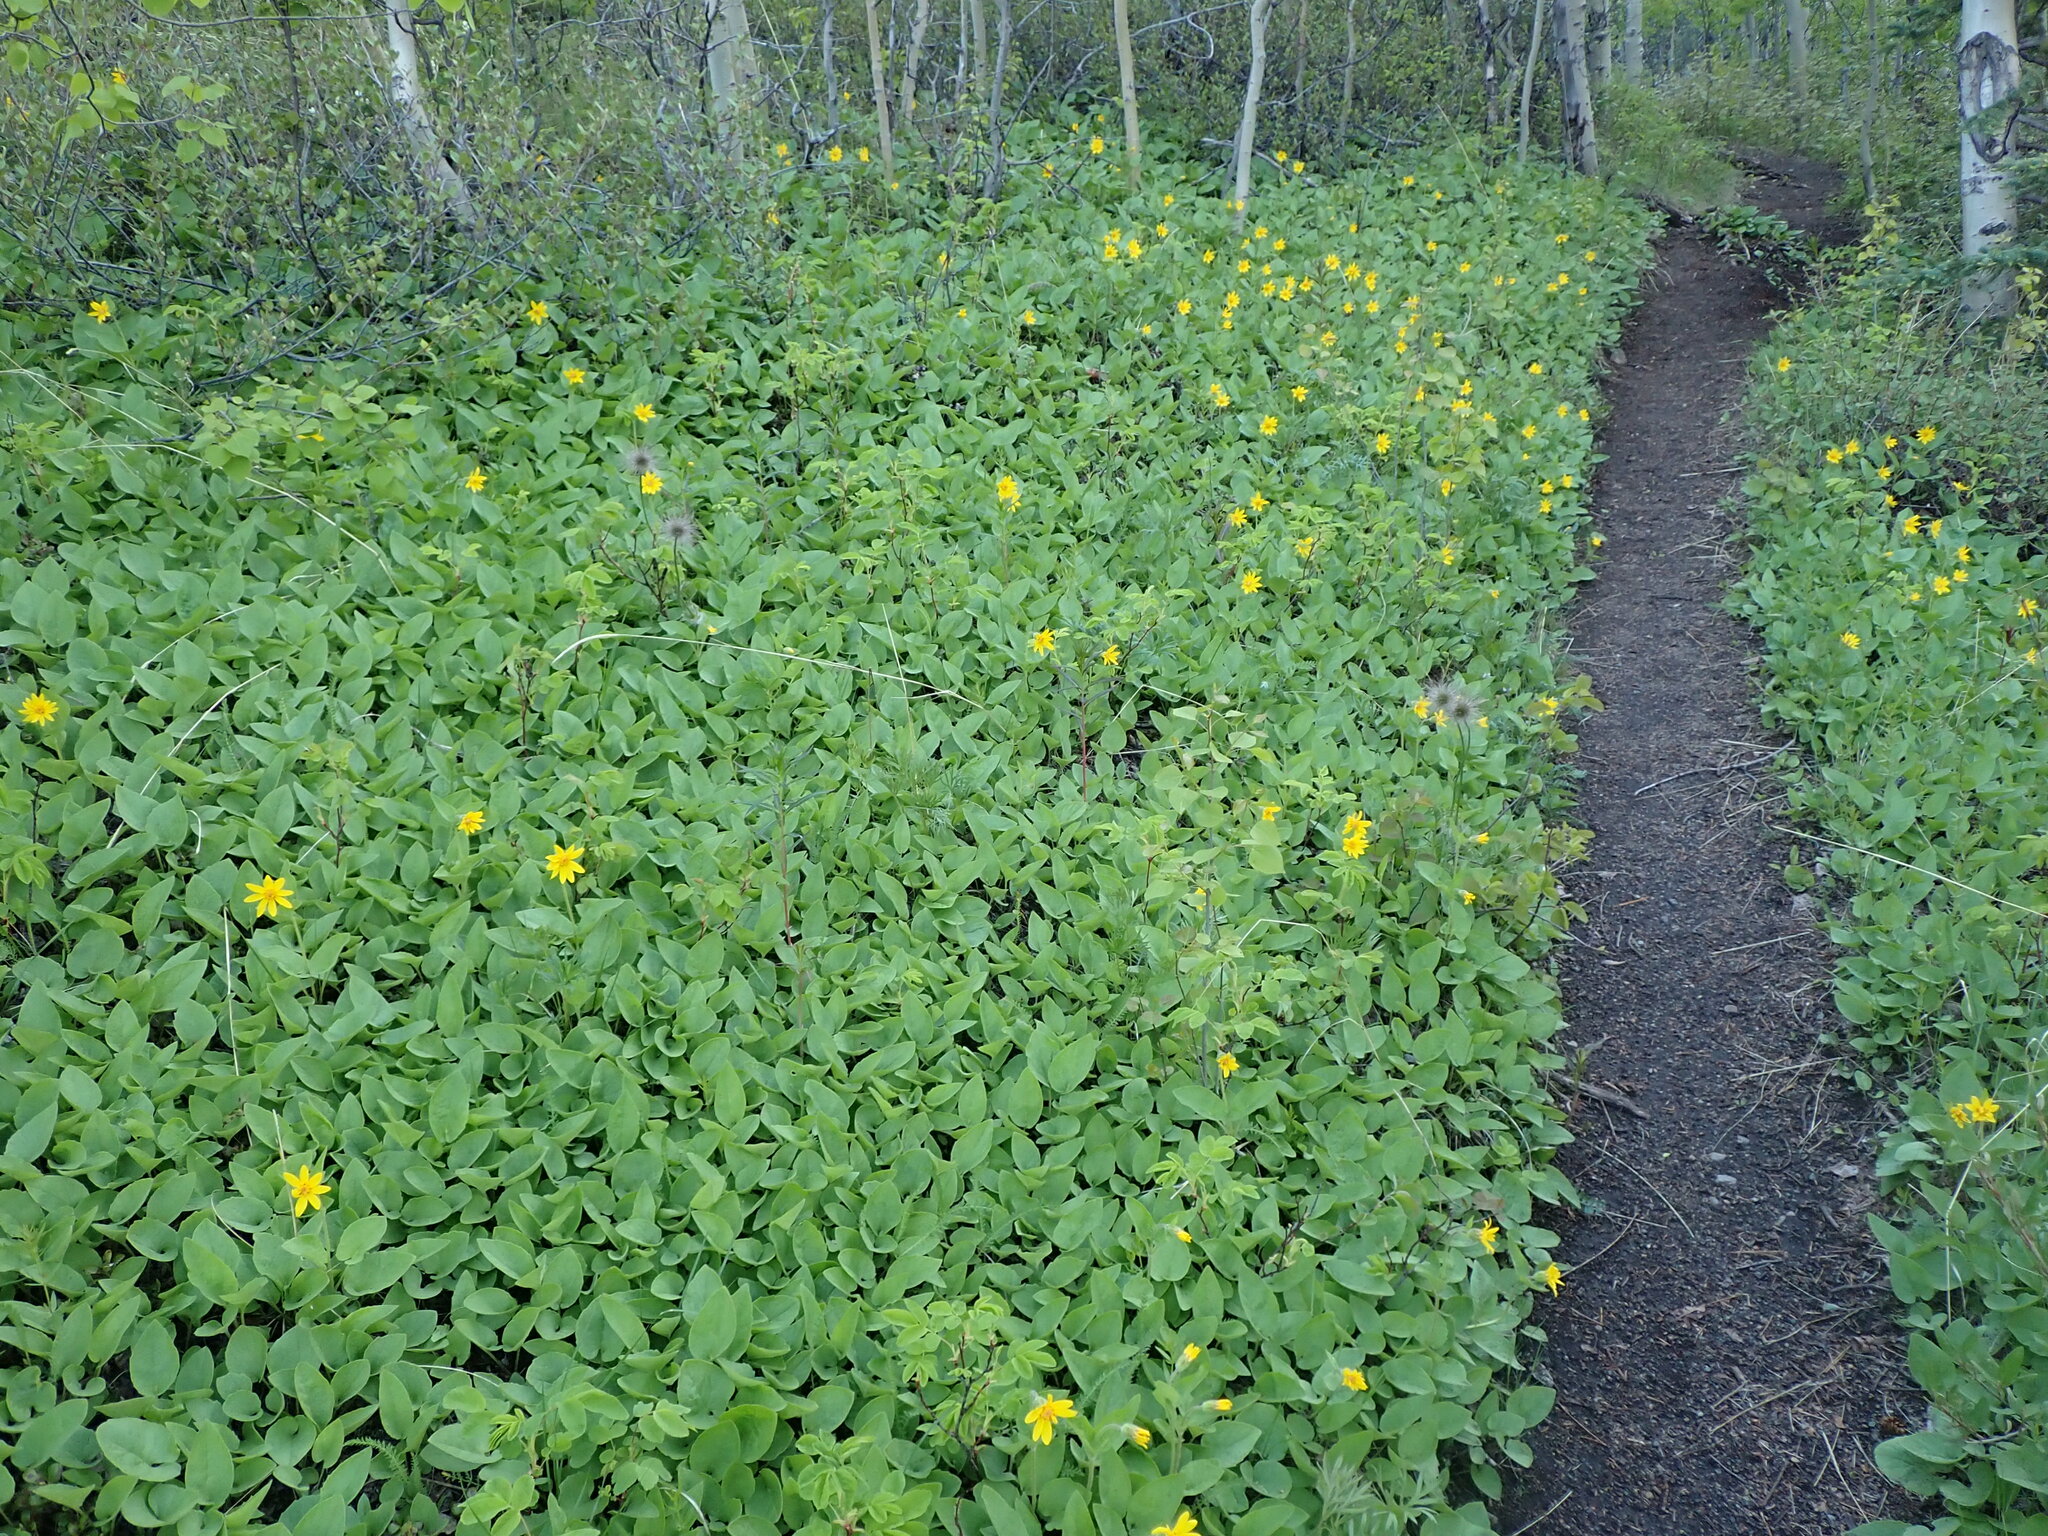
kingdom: Plantae
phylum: Tracheophyta
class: Magnoliopsida
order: Asterales
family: Asteraceae
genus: Arnica
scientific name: Arnica cordifolia
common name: Heart-leaf arnica
